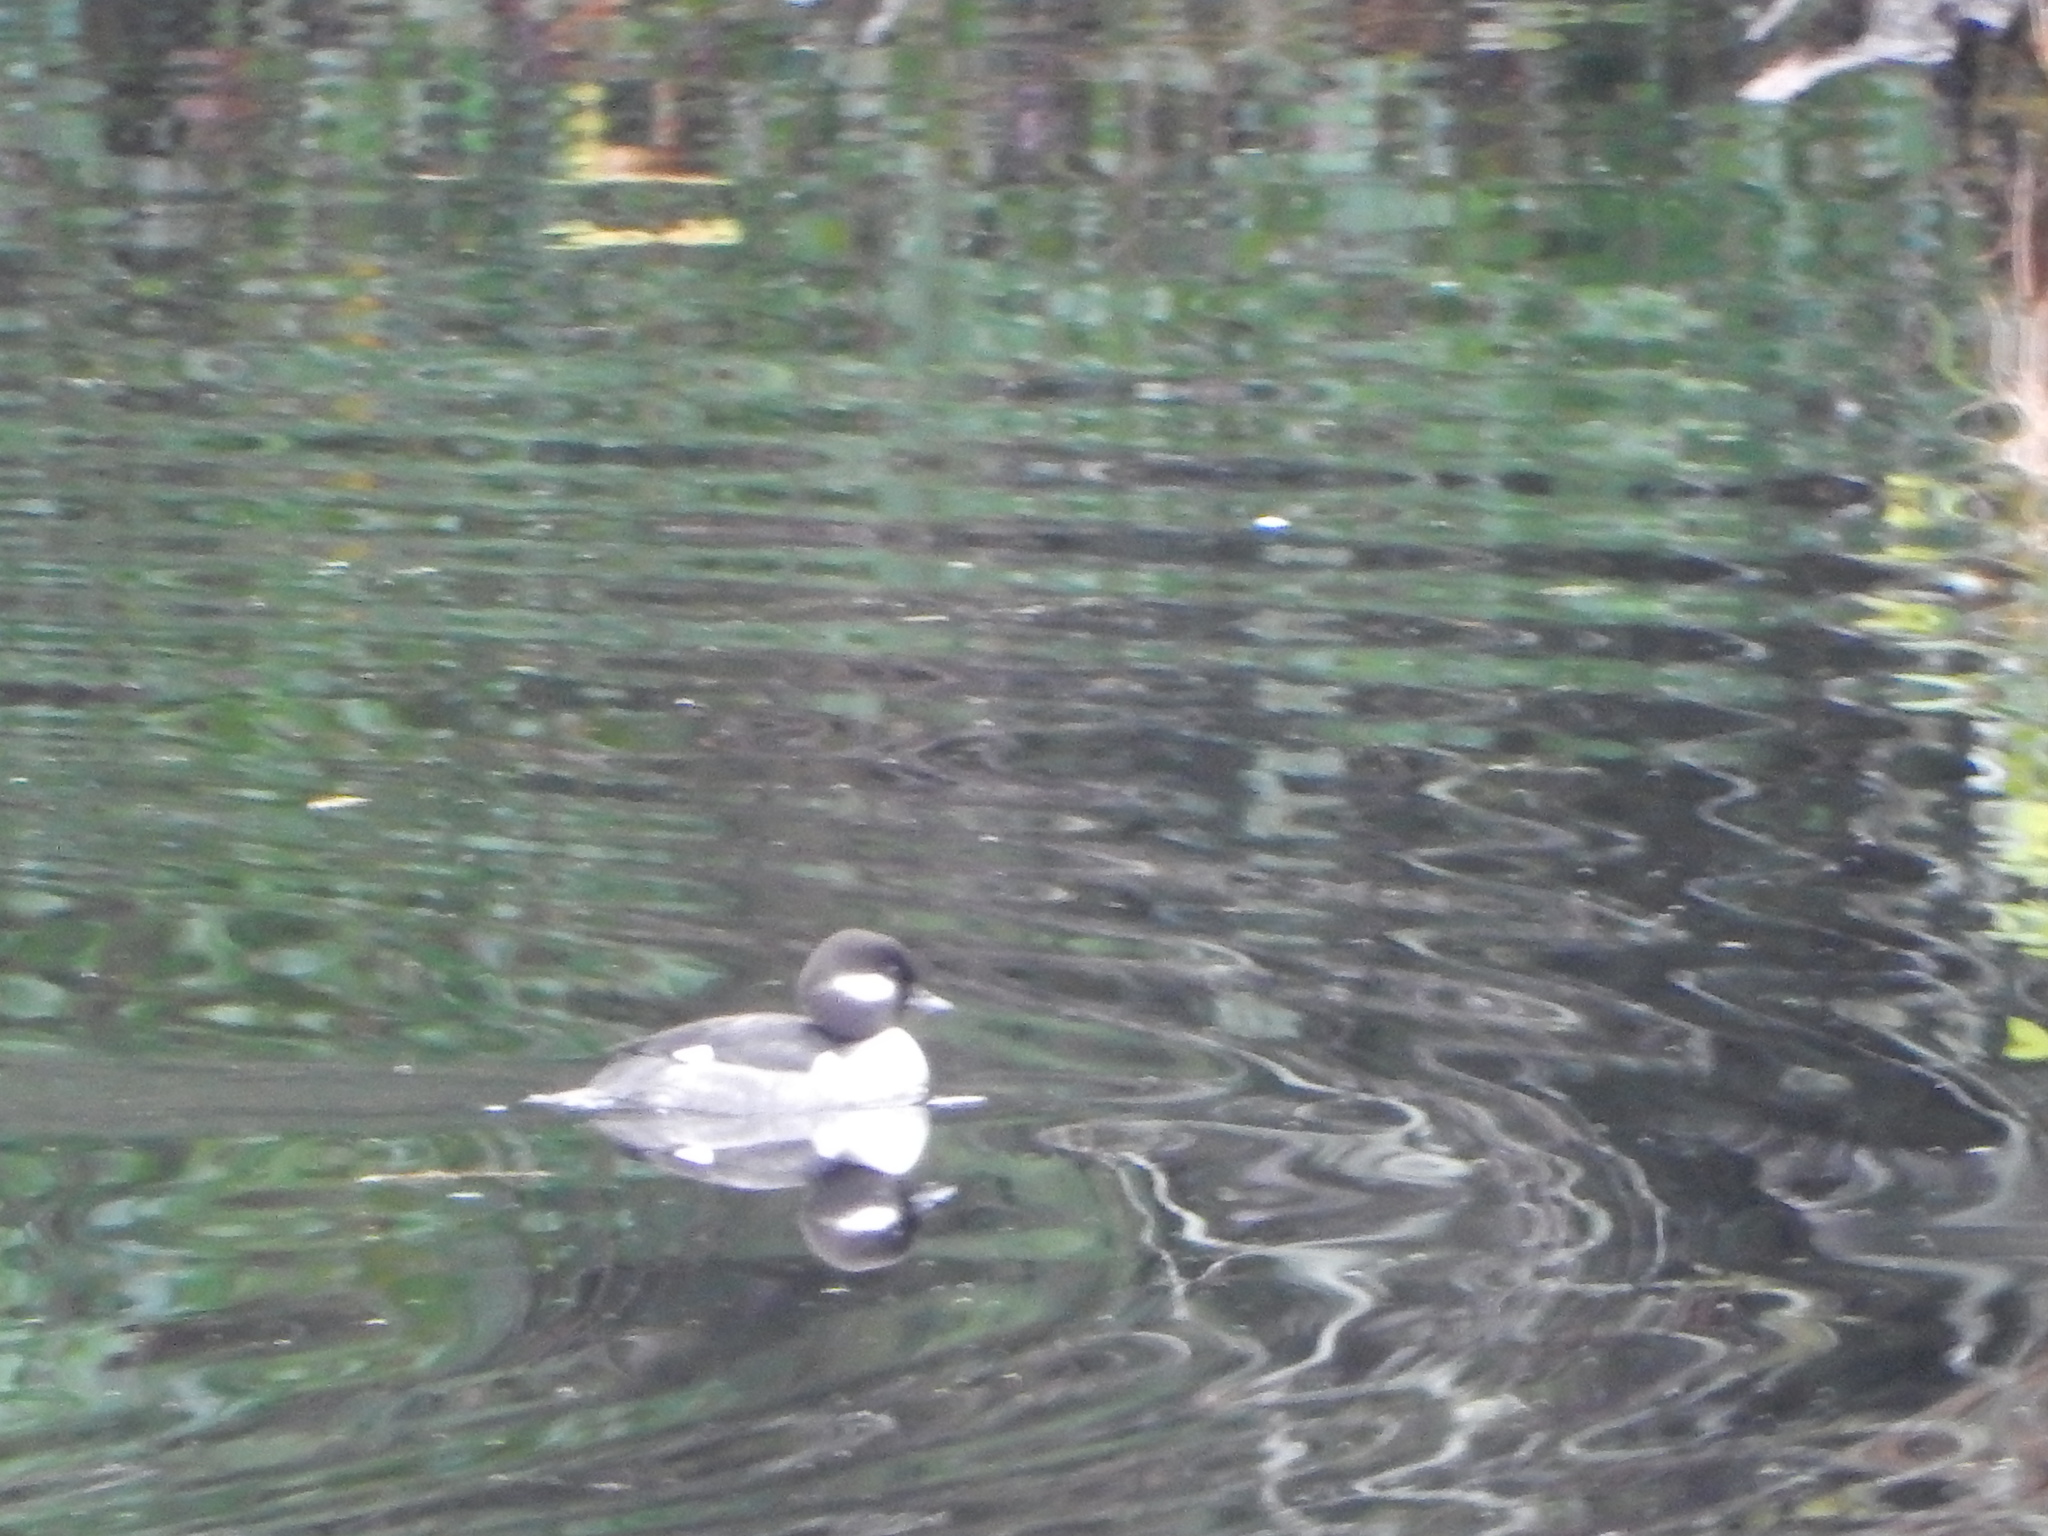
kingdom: Animalia
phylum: Chordata
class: Aves
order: Anseriformes
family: Anatidae
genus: Bucephala
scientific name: Bucephala albeola
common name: Bufflehead
